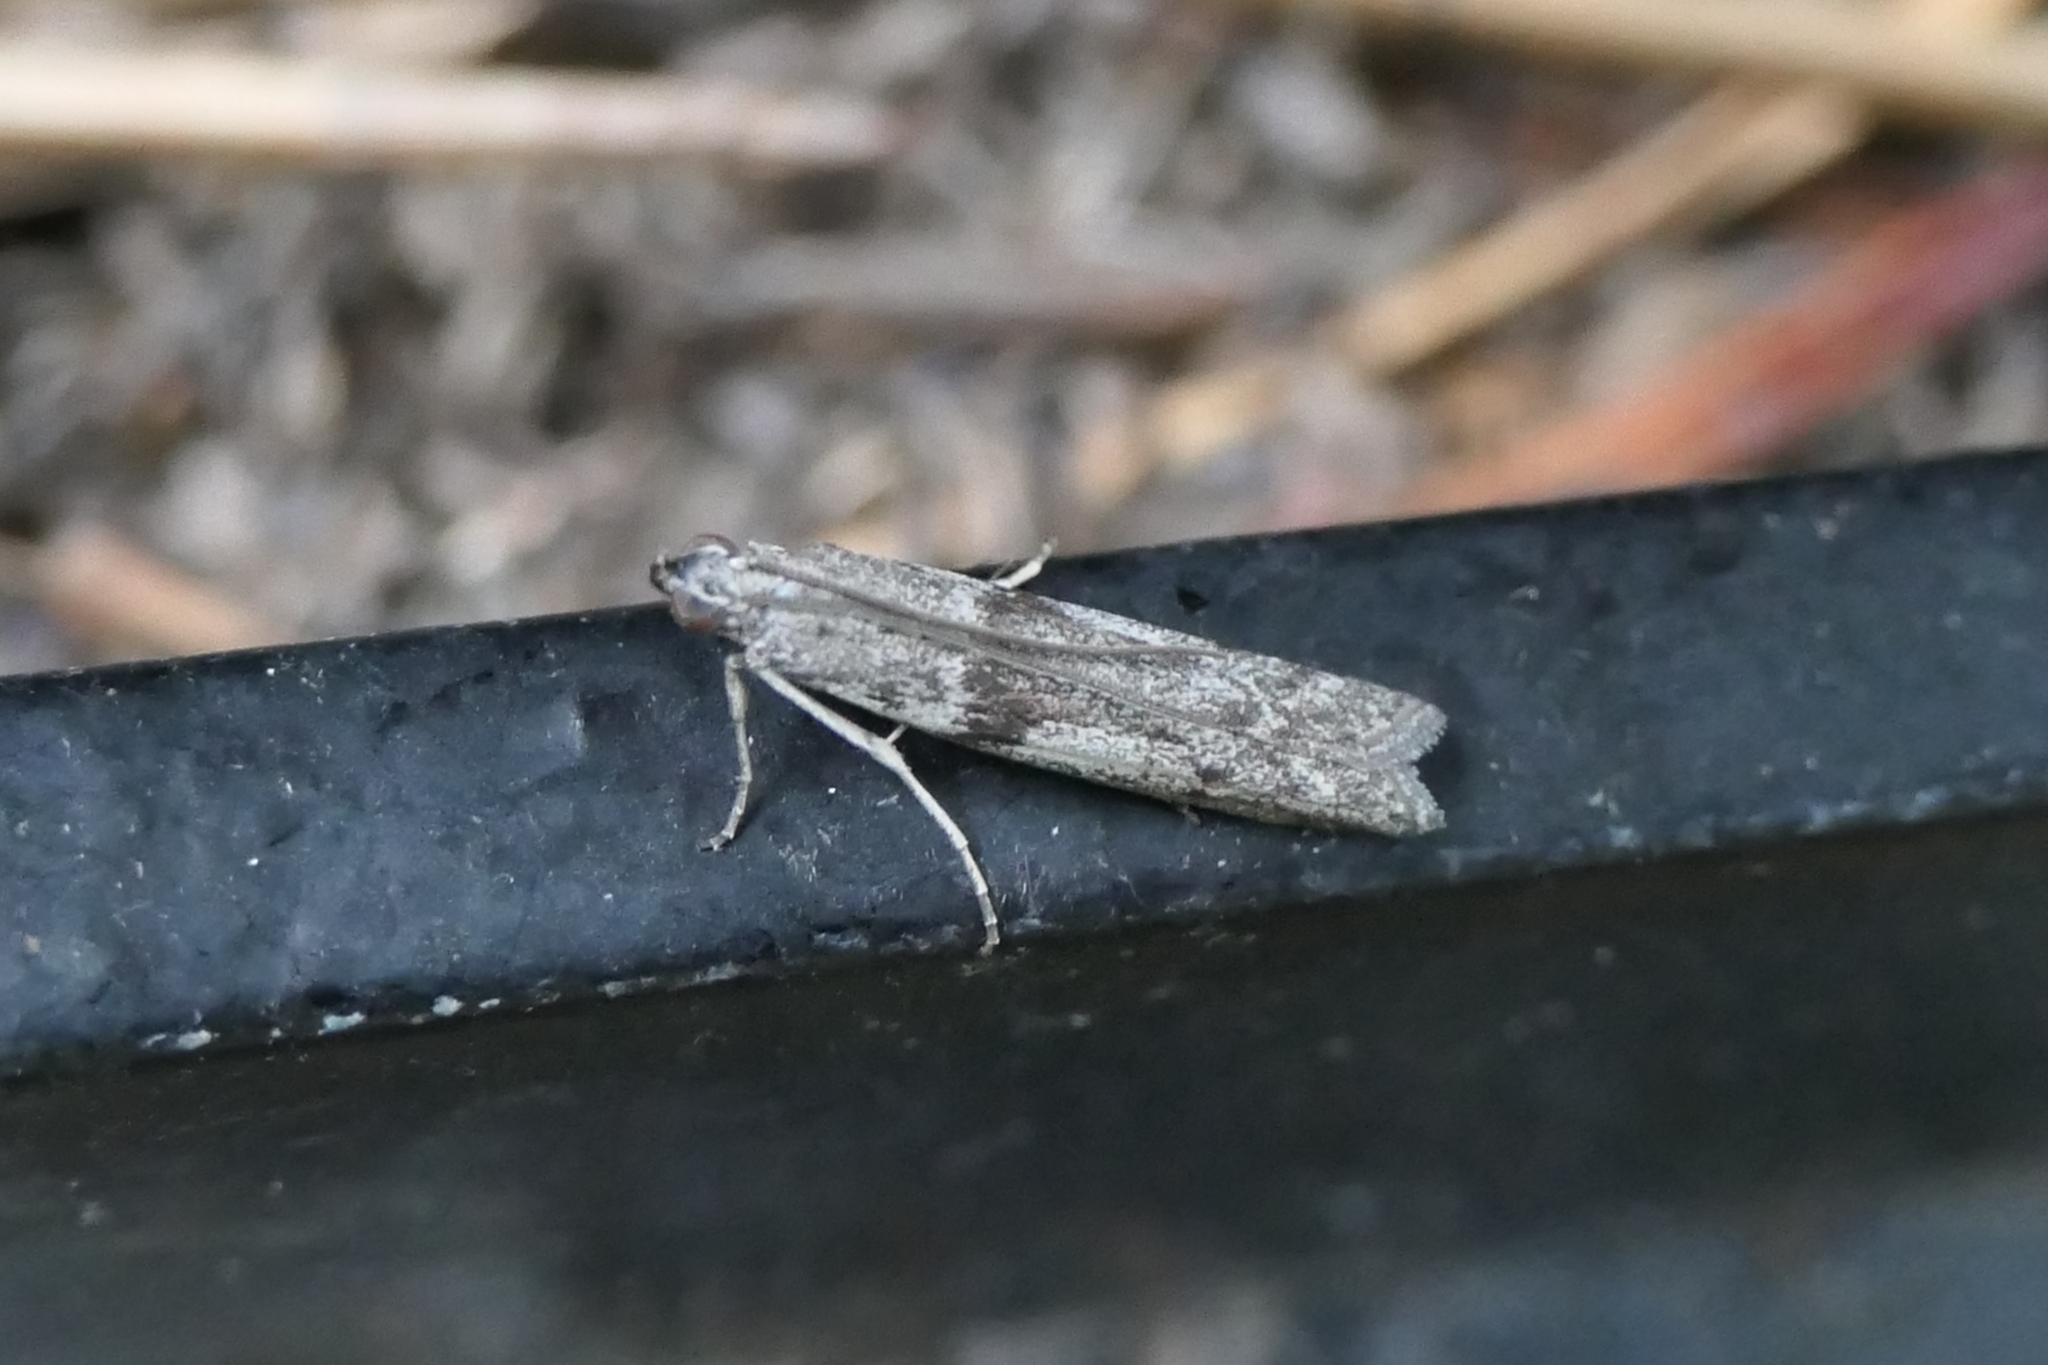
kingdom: Animalia
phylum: Arthropoda
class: Insecta
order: Lepidoptera
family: Pyralidae
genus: Patagoniodes
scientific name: Patagoniodes farinaria
